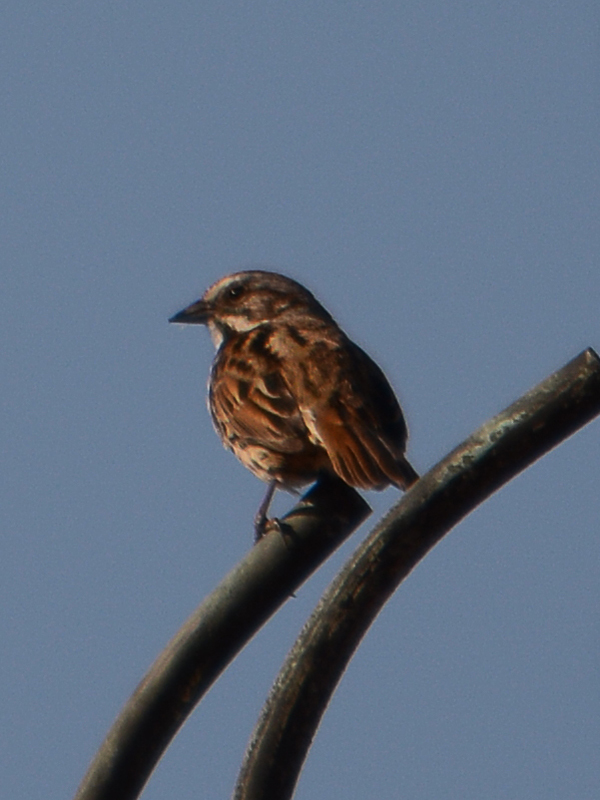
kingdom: Animalia
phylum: Chordata
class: Aves
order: Passeriformes
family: Passerellidae
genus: Melospiza
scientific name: Melospiza melodia
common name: Song sparrow
